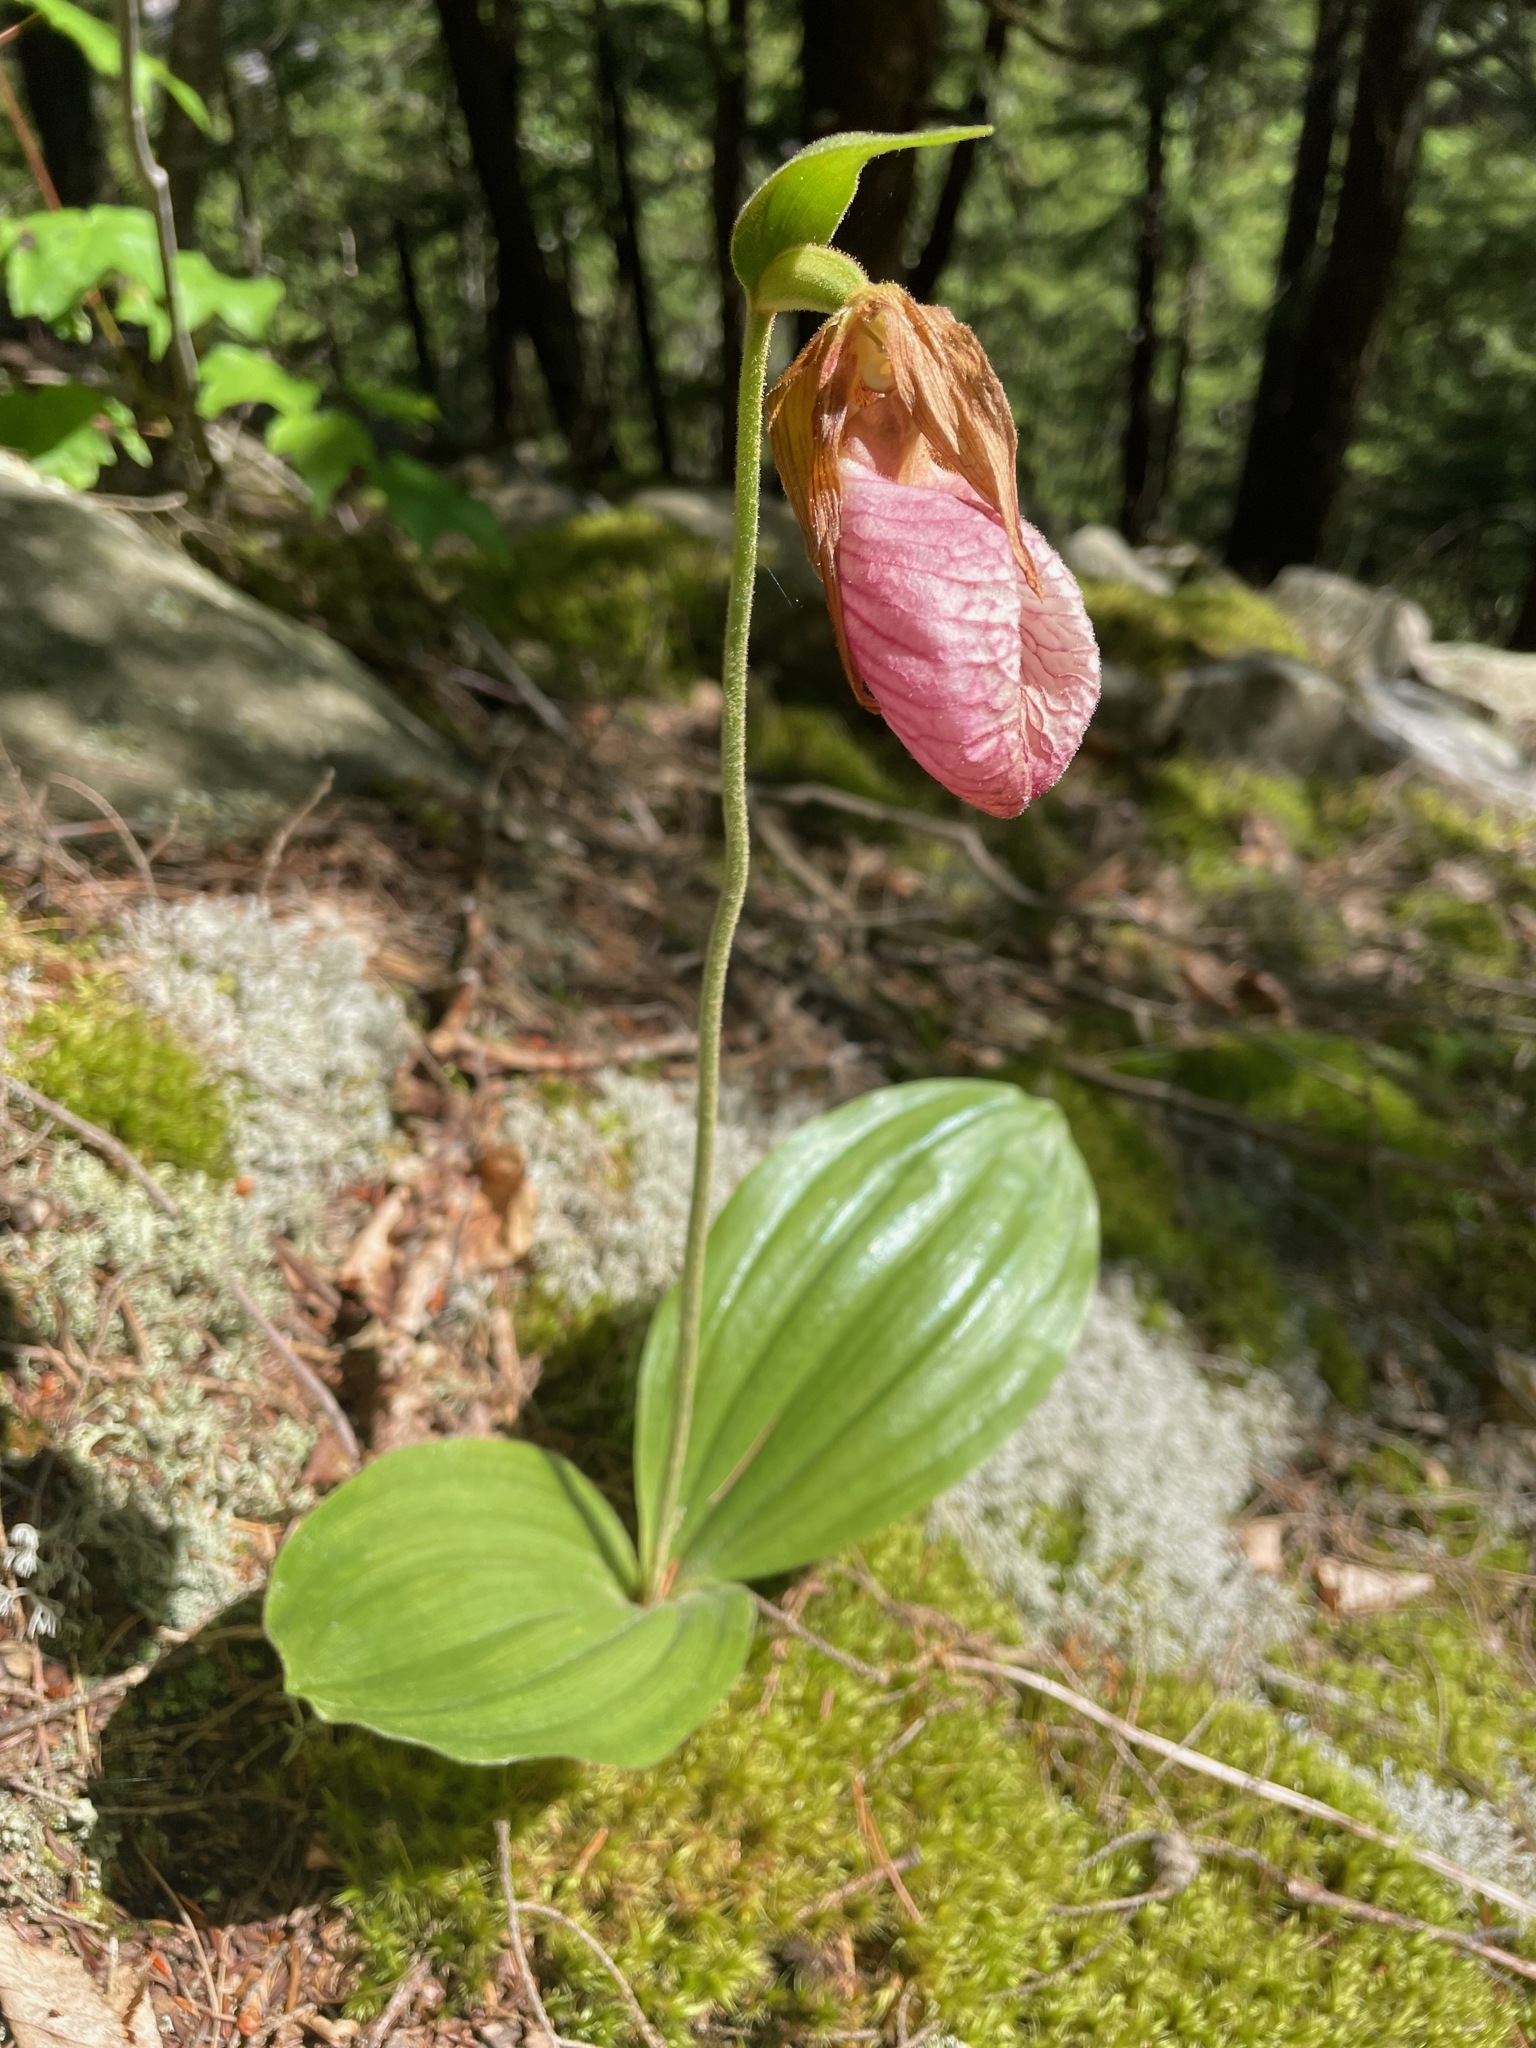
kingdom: Plantae
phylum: Tracheophyta
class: Liliopsida
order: Asparagales
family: Orchidaceae
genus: Cypripedium
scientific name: Cypripedium acaule
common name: Pink lady's-slipper
